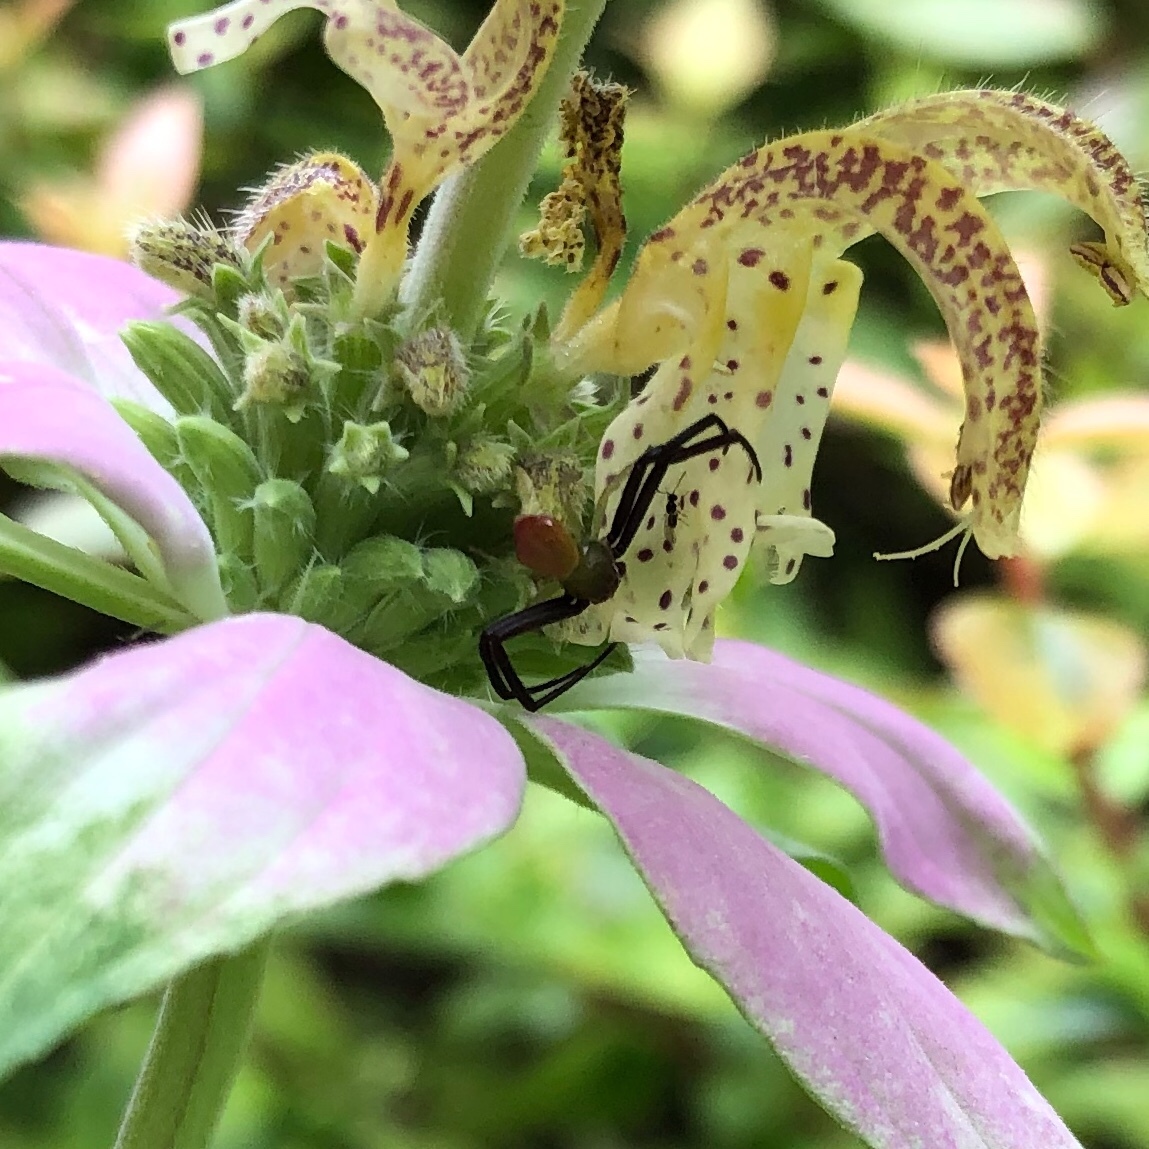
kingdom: Animalia
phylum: Arthropoda
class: Arachnida
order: Araneae
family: Thomisidae
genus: Misumenoides
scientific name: Misumenoides formosipes
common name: White-banded crab spider
